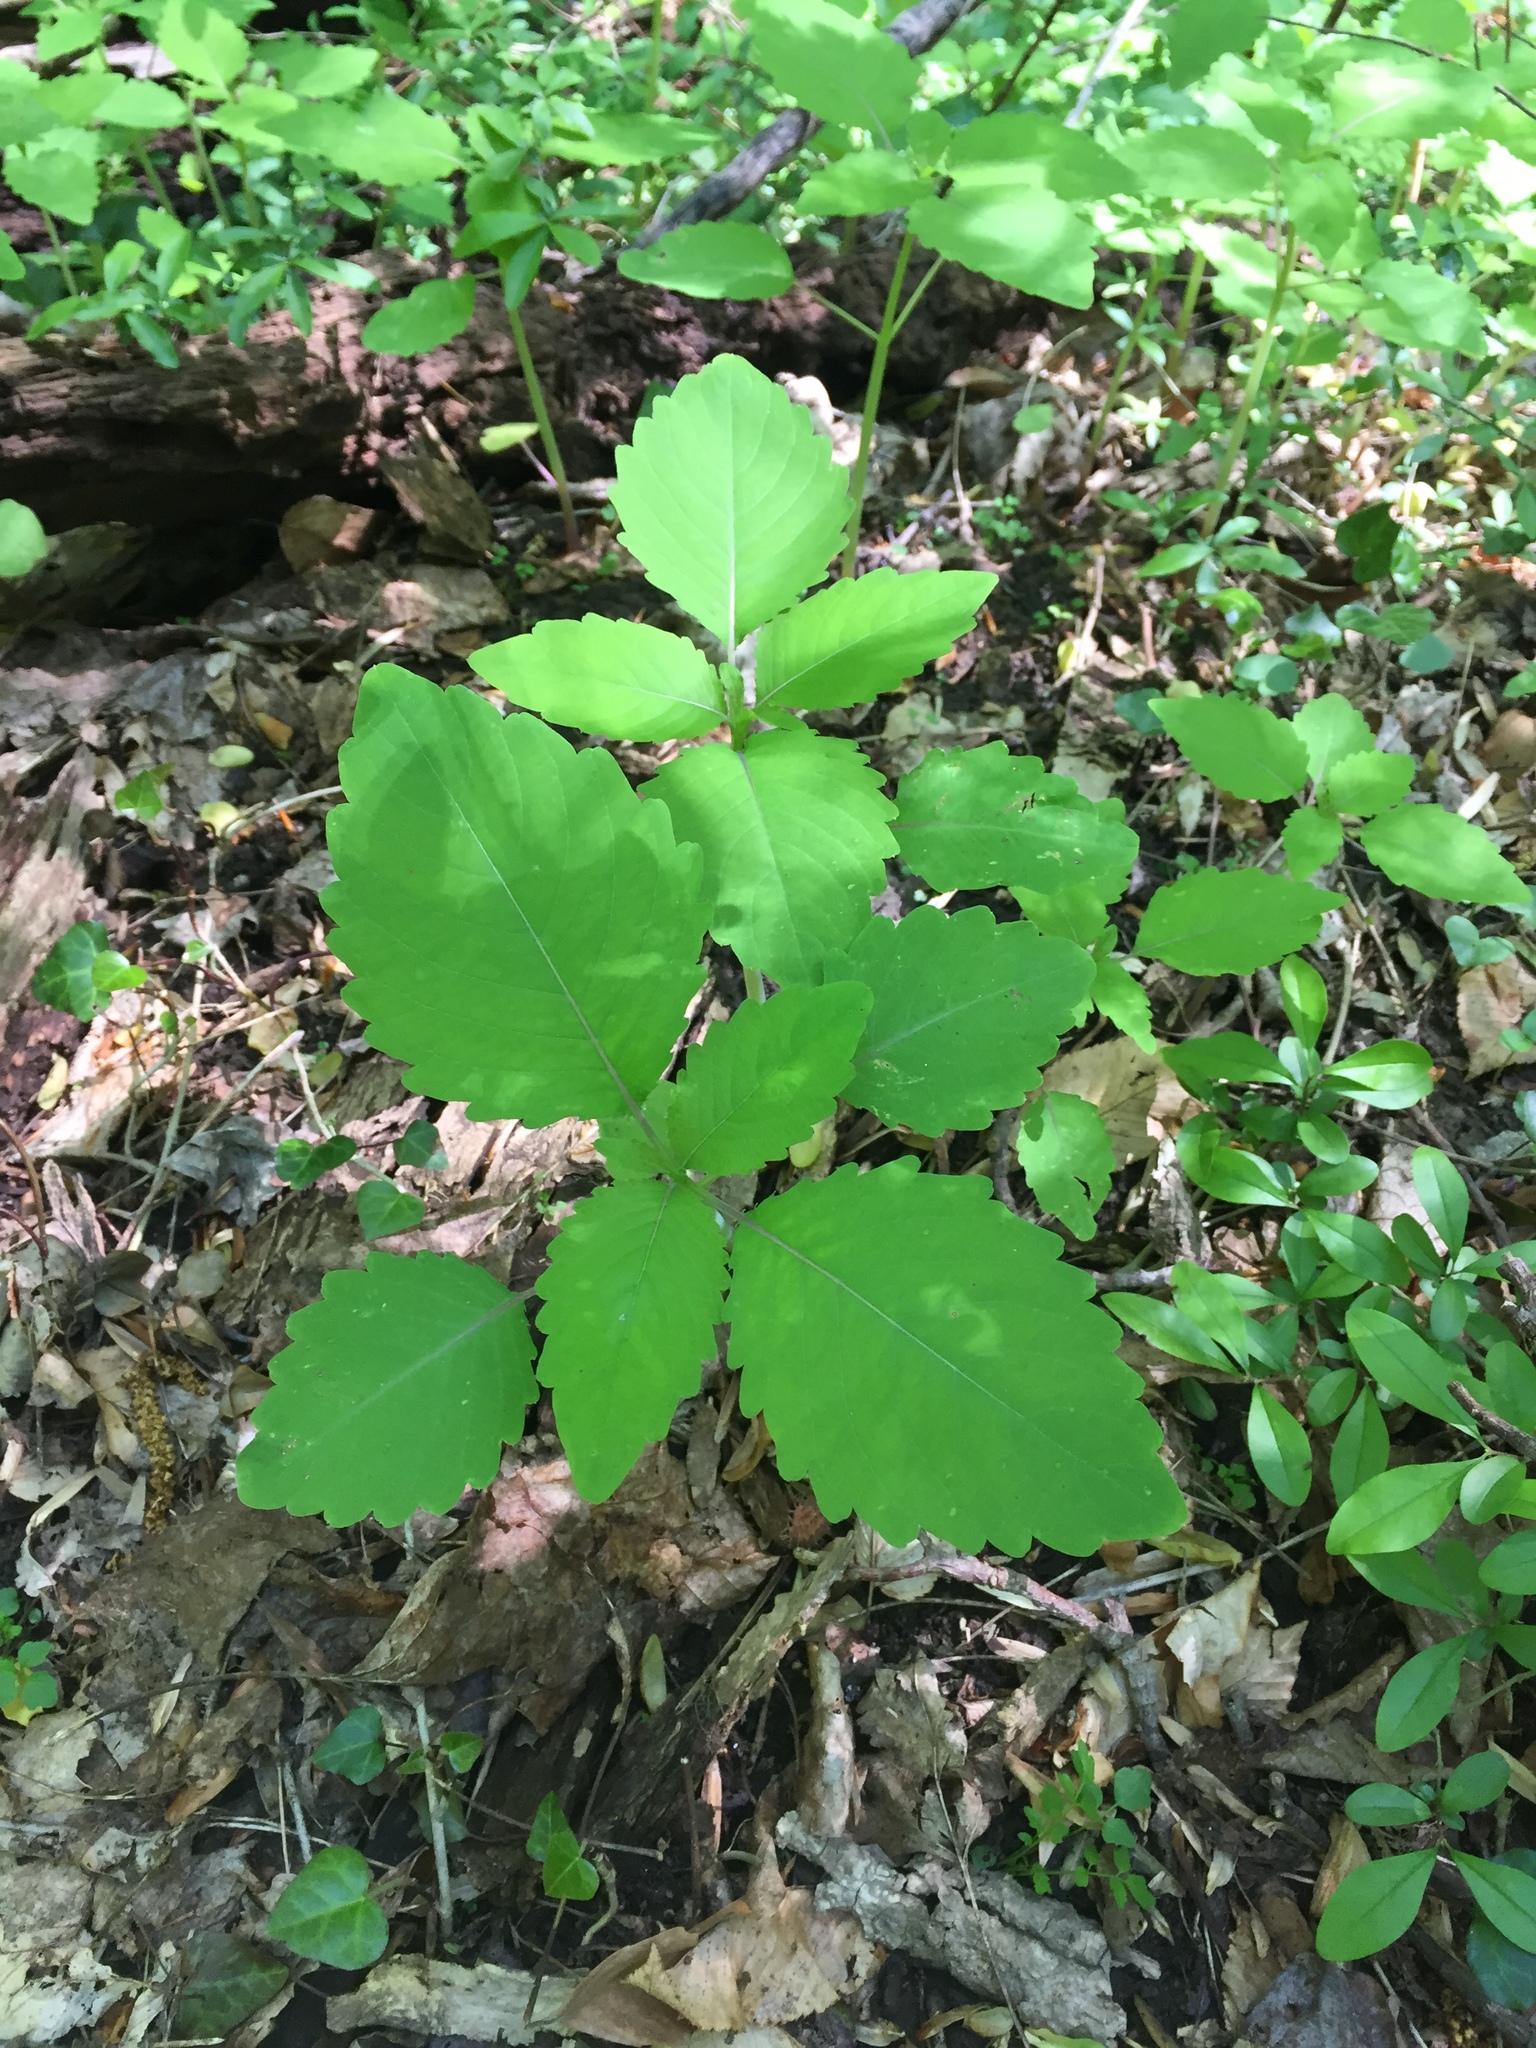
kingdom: Plantae
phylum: Tracheophyta
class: Magnoliopsida
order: Ericales
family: Balsaminaceae
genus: Impatiens
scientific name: Impatiens capensis
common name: Orange balsam
